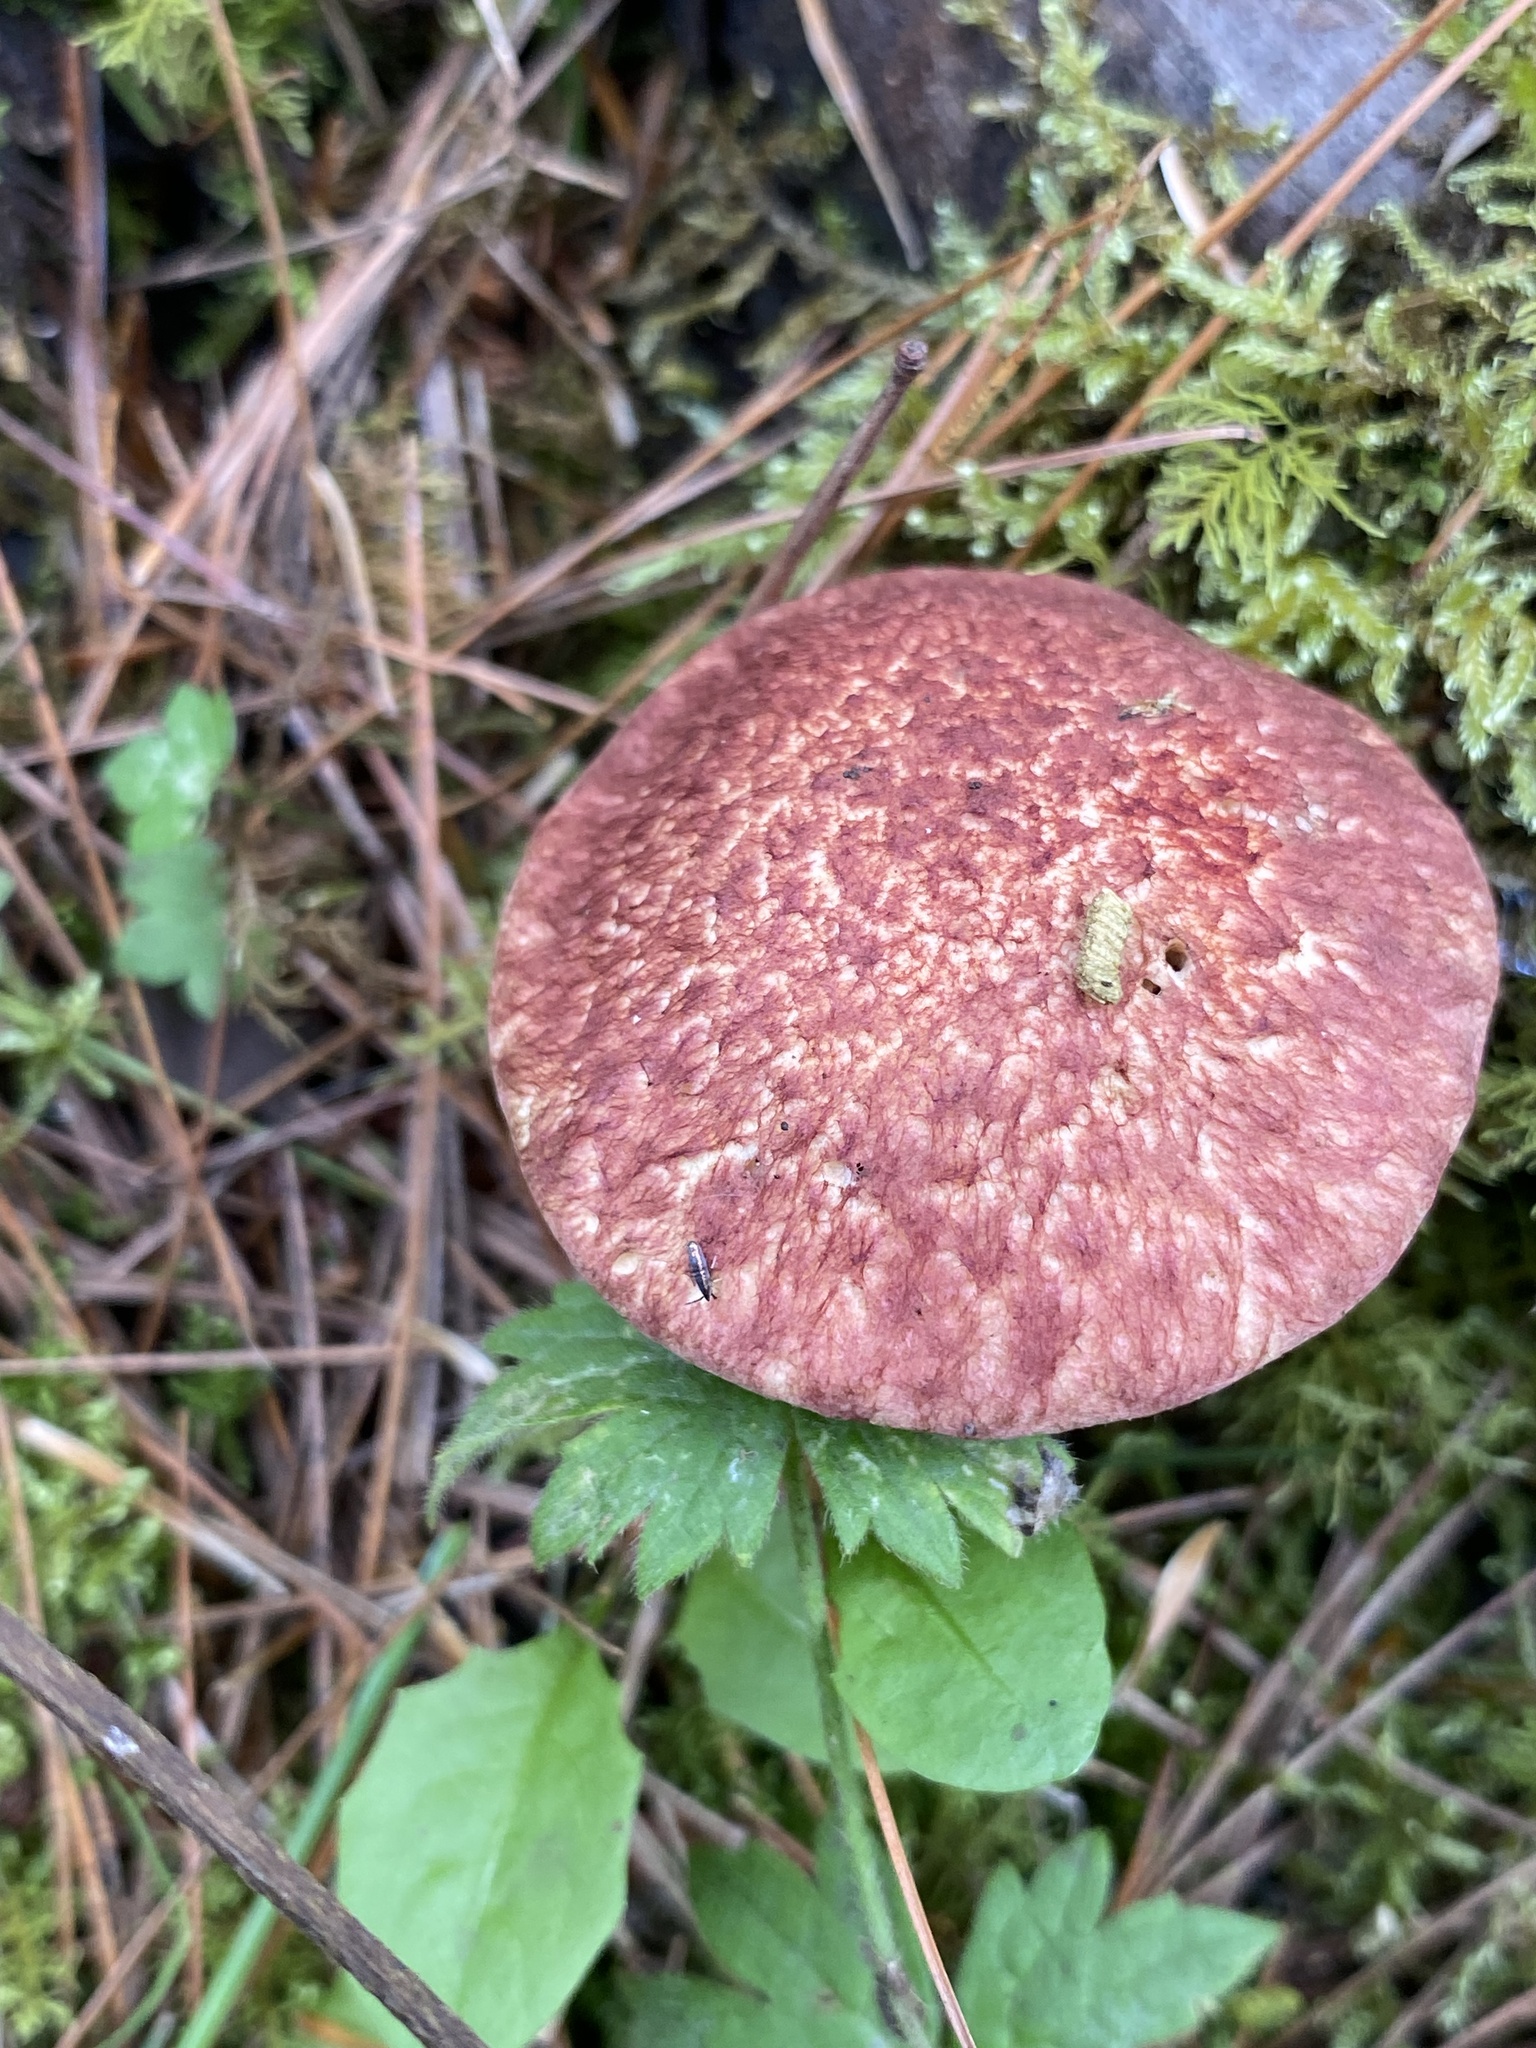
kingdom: Fungi
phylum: Basidiomycota
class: Agaricomycetes
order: Boletales
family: Suillaceae
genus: Suillus
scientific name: Suillus spraguei
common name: Painted suillus
